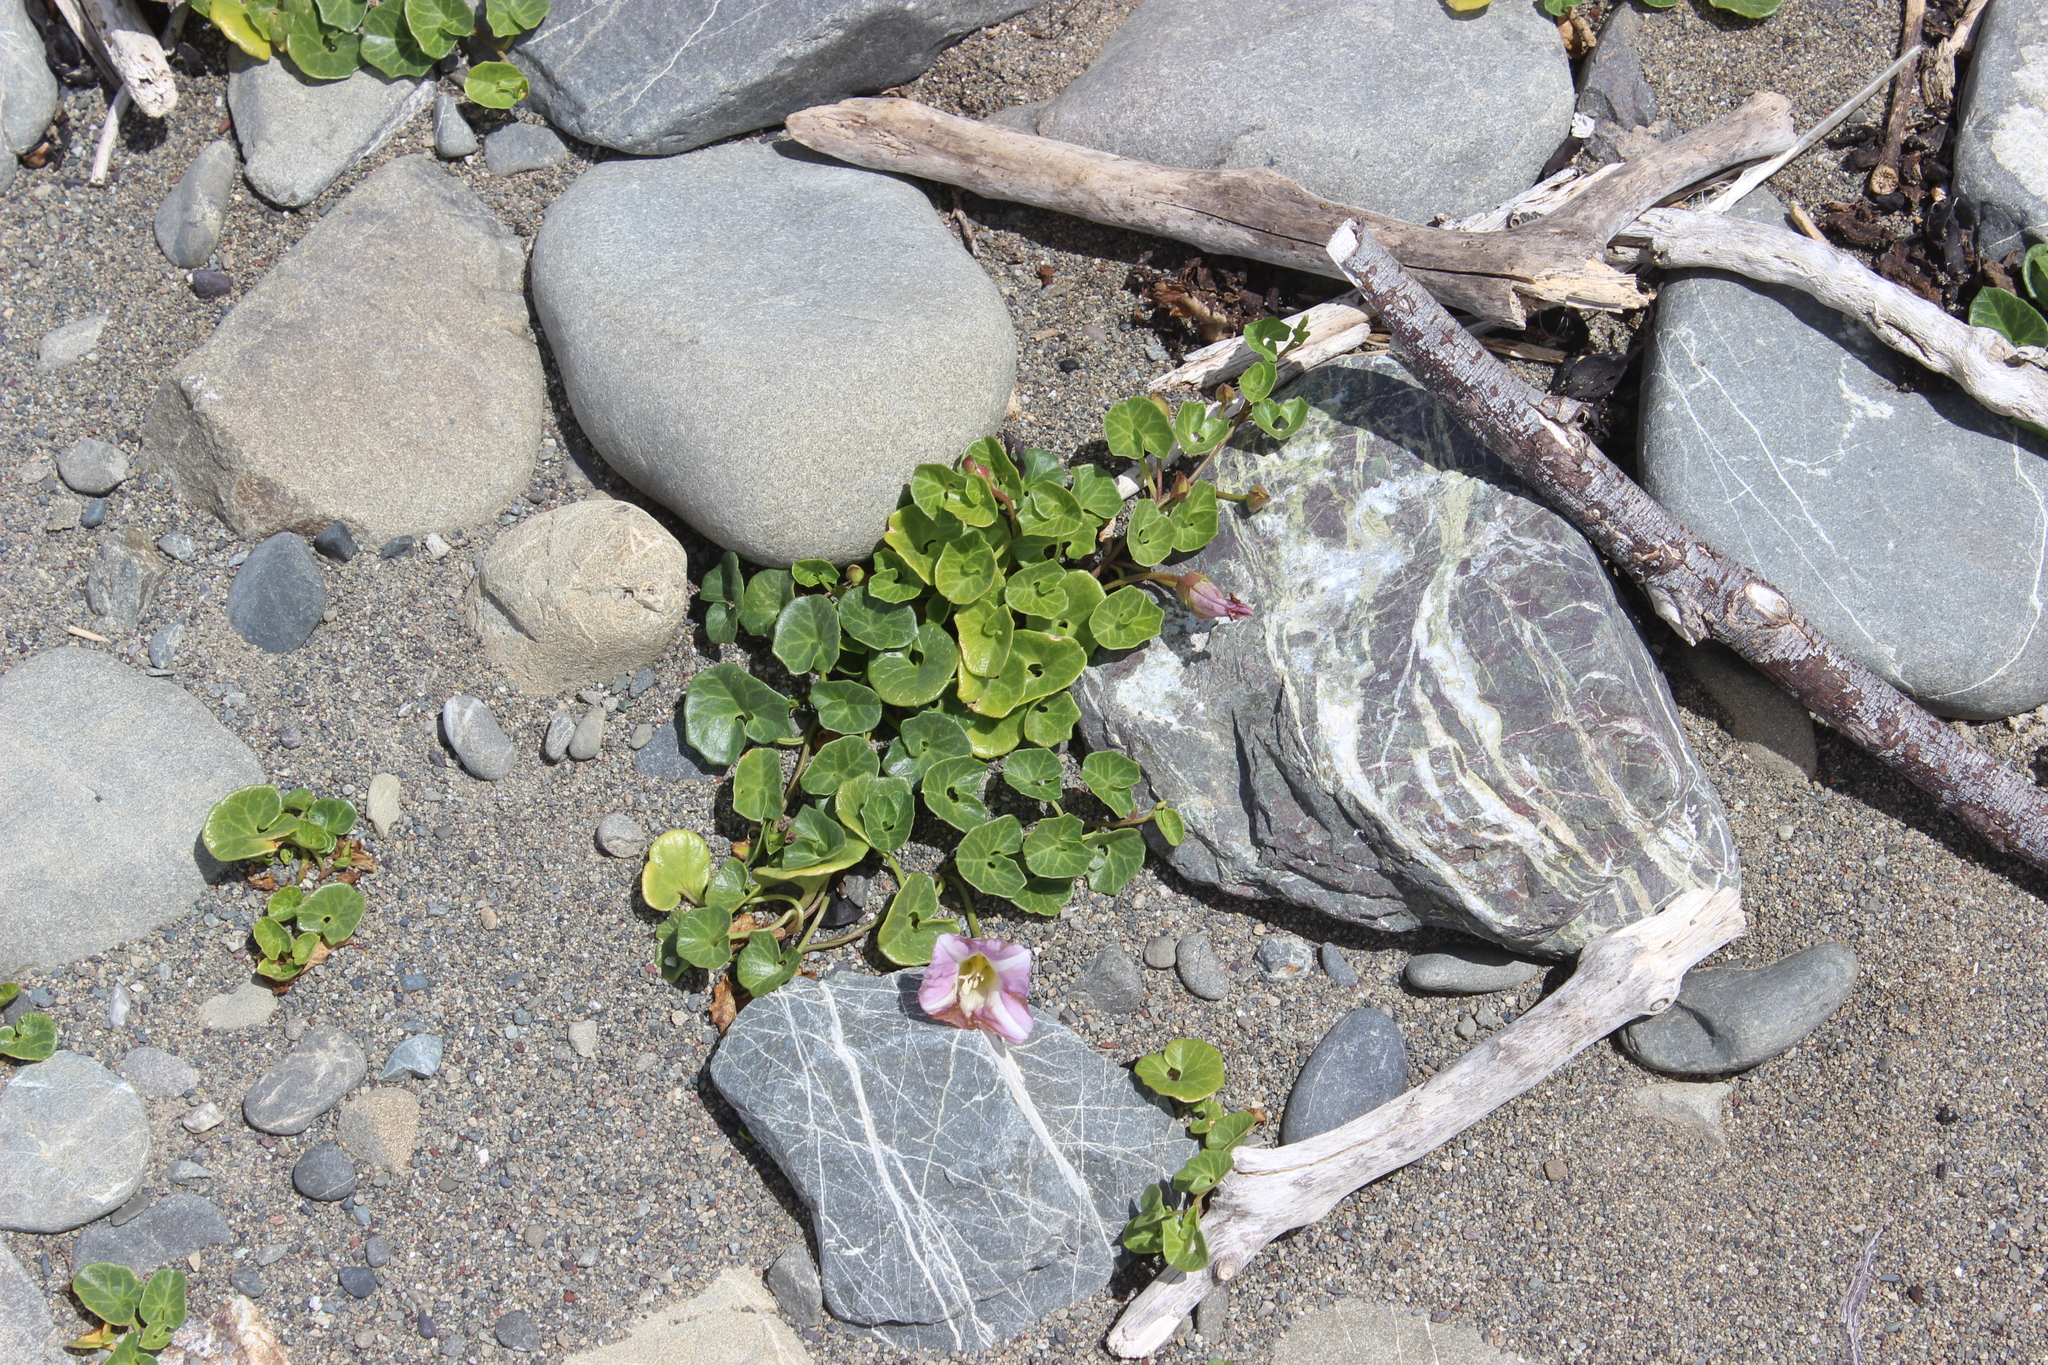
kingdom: Plantae
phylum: Tracheophyta
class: Magnoliopsida
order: Solanales
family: Convolvulaceae
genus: Calystegia
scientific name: Calystegia soldanella
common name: Sea bindweed
